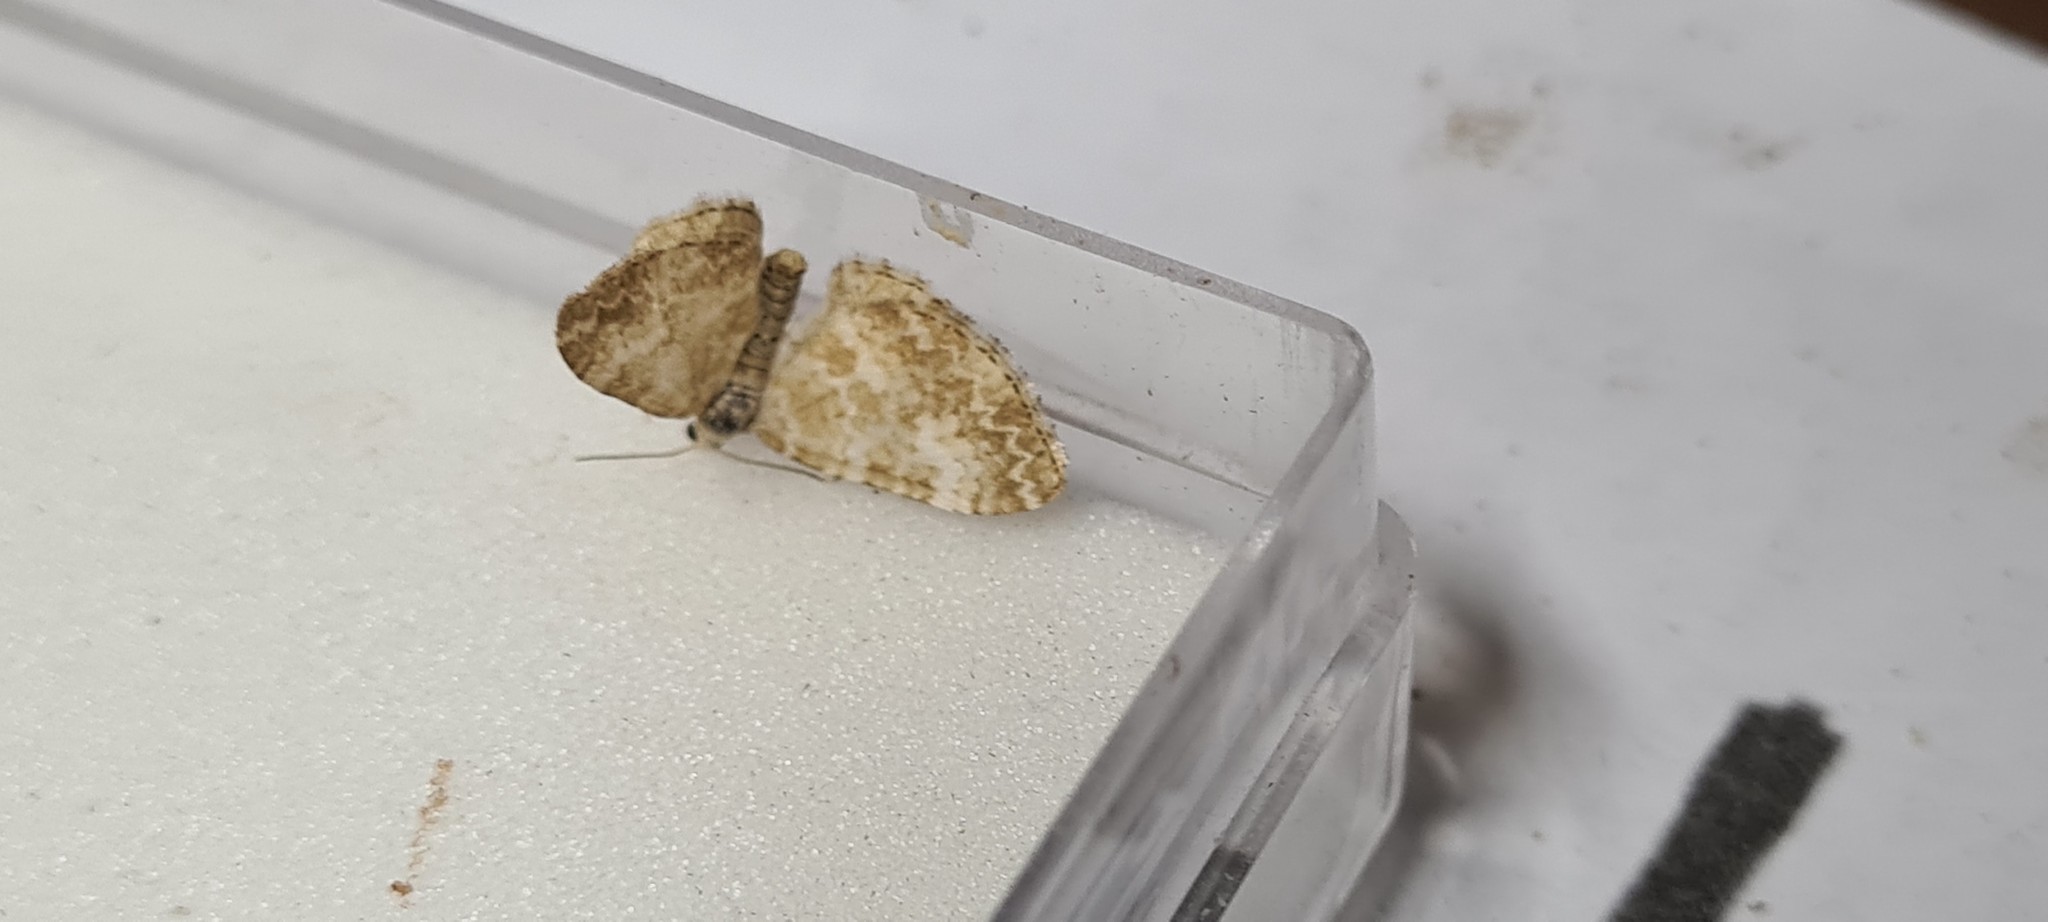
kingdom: Animalia
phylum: Arthropoda
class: Insecta
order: Lepidoptera
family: Geometridae
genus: Perizoma
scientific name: Perizoma flavofasciata
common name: Sandy carpet
